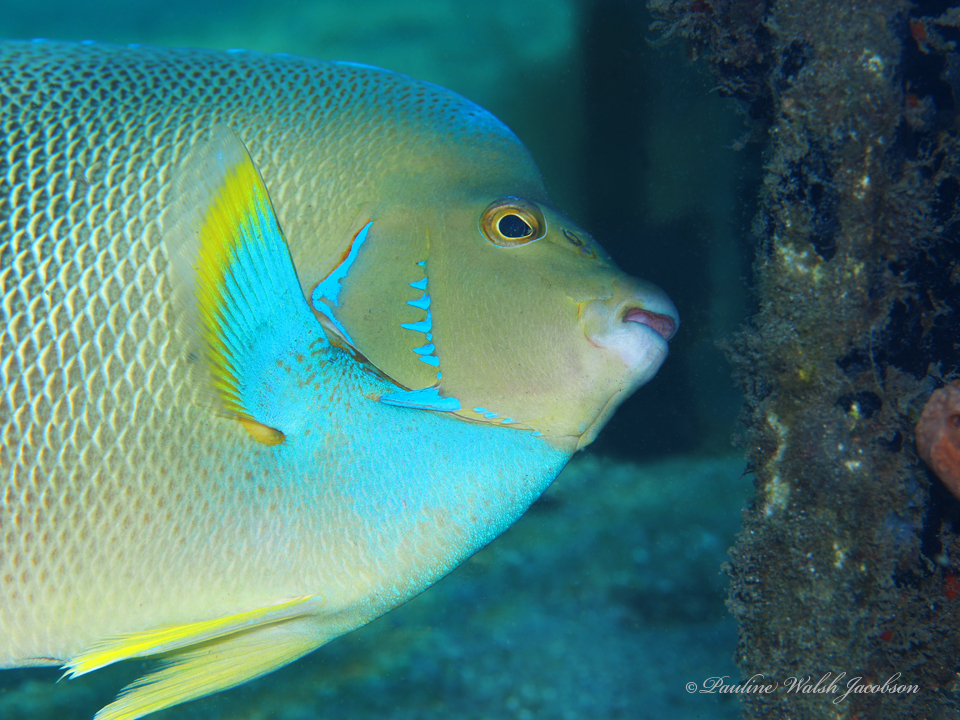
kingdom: Animalia
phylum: Chordata
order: Perciformes
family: Pomacanthidae
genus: Holacanthus
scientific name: Holacanthus bermudensis
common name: Blue angelfish
